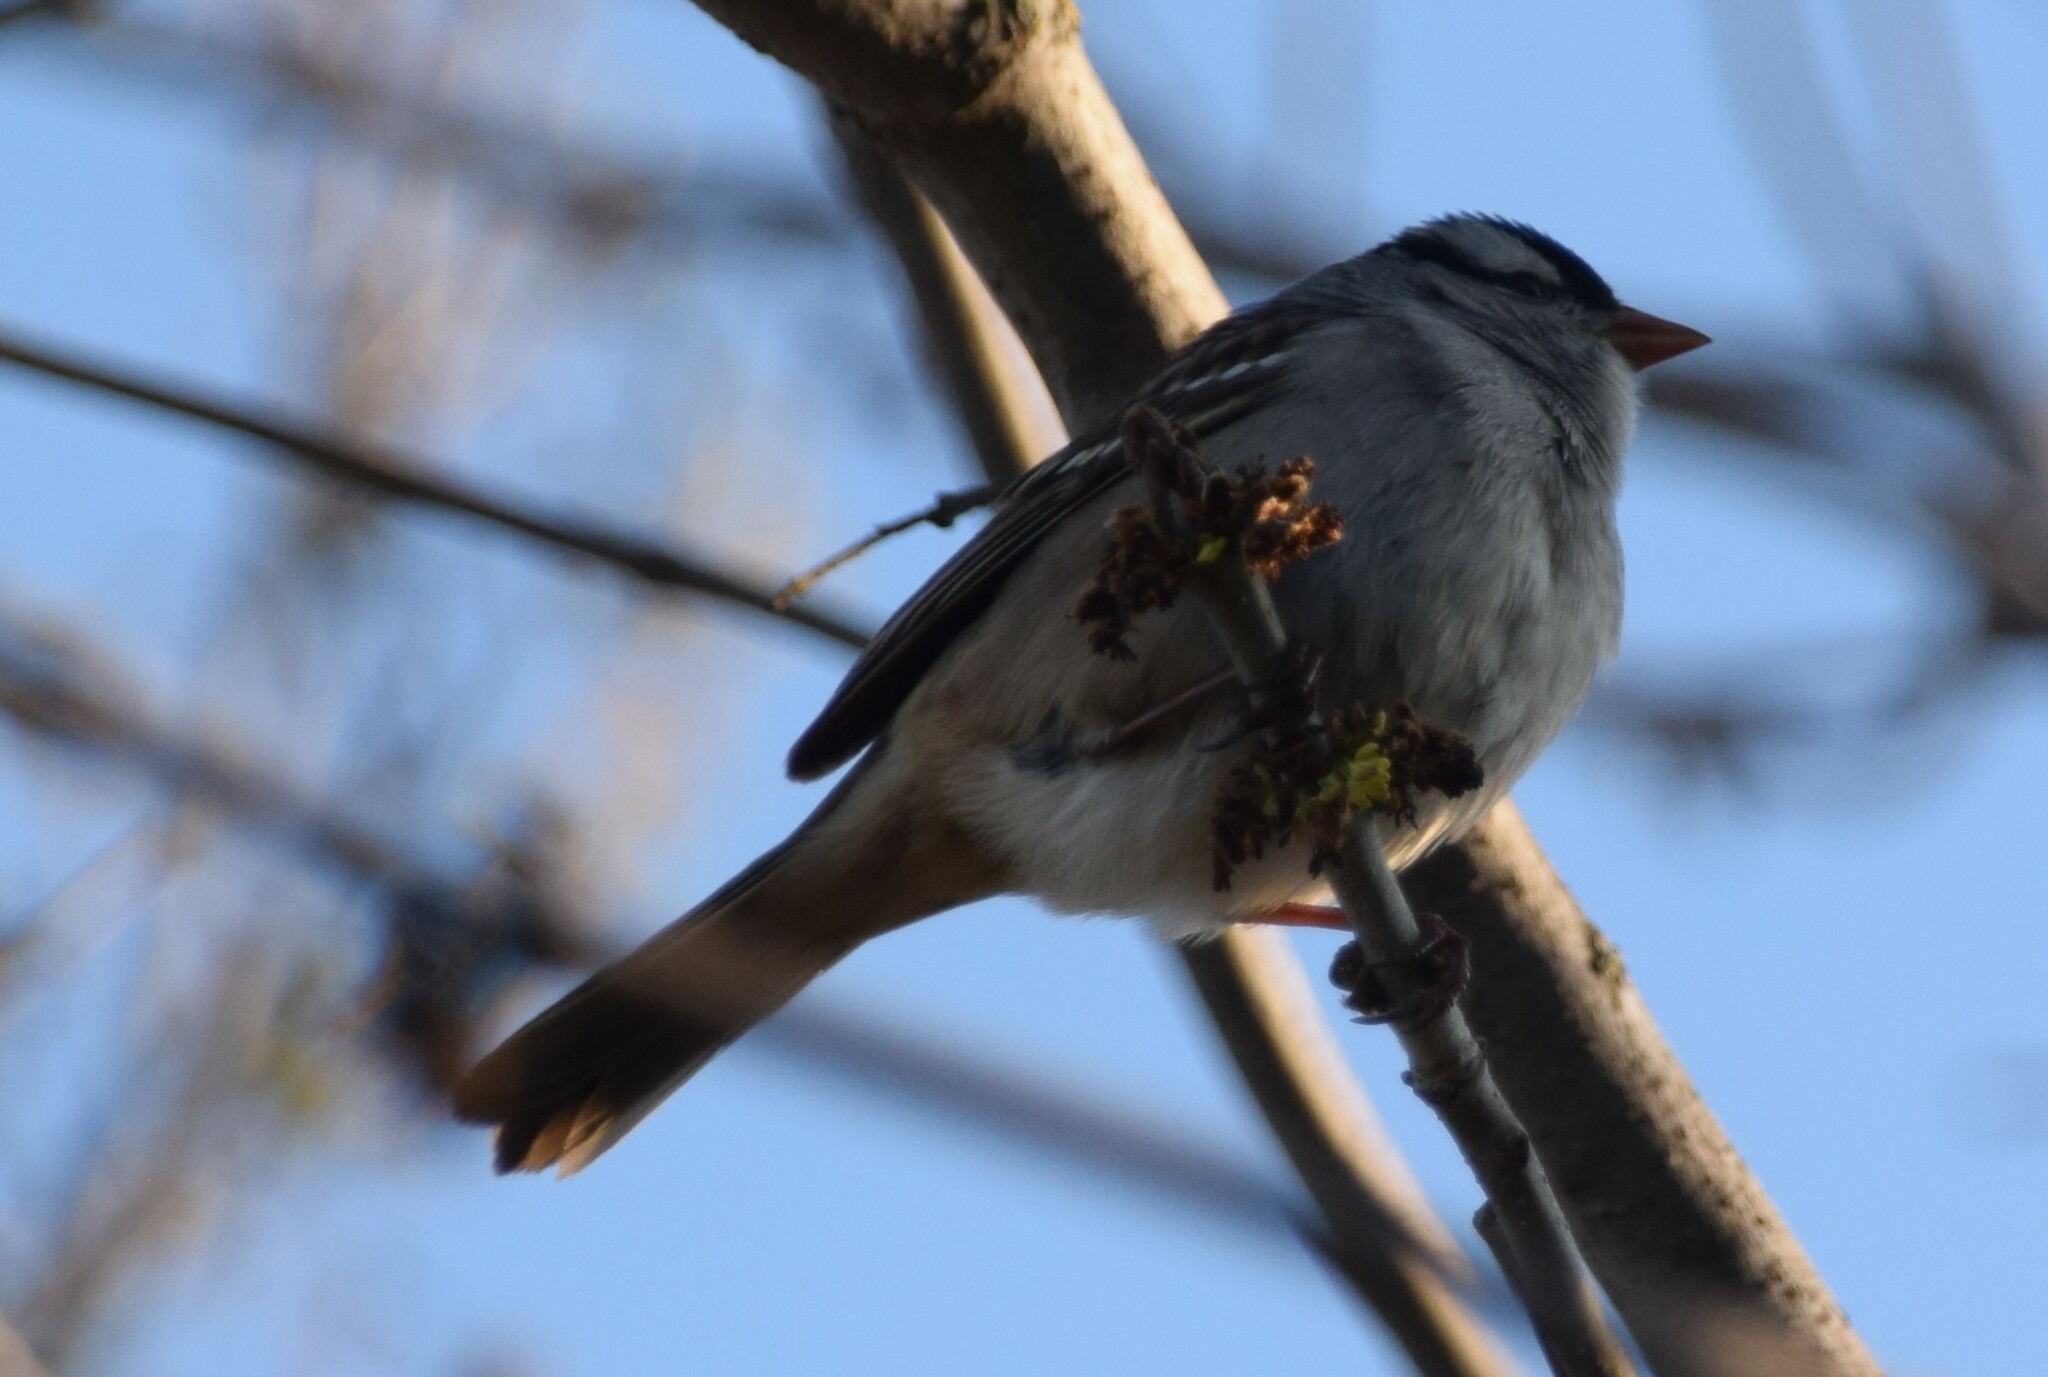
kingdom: Animalia
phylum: Chordata
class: Aves
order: Passeriformes
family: Passerellidae
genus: Zonotrichia
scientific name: Zonotrichia leucophrys
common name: White-crowned sparrow
